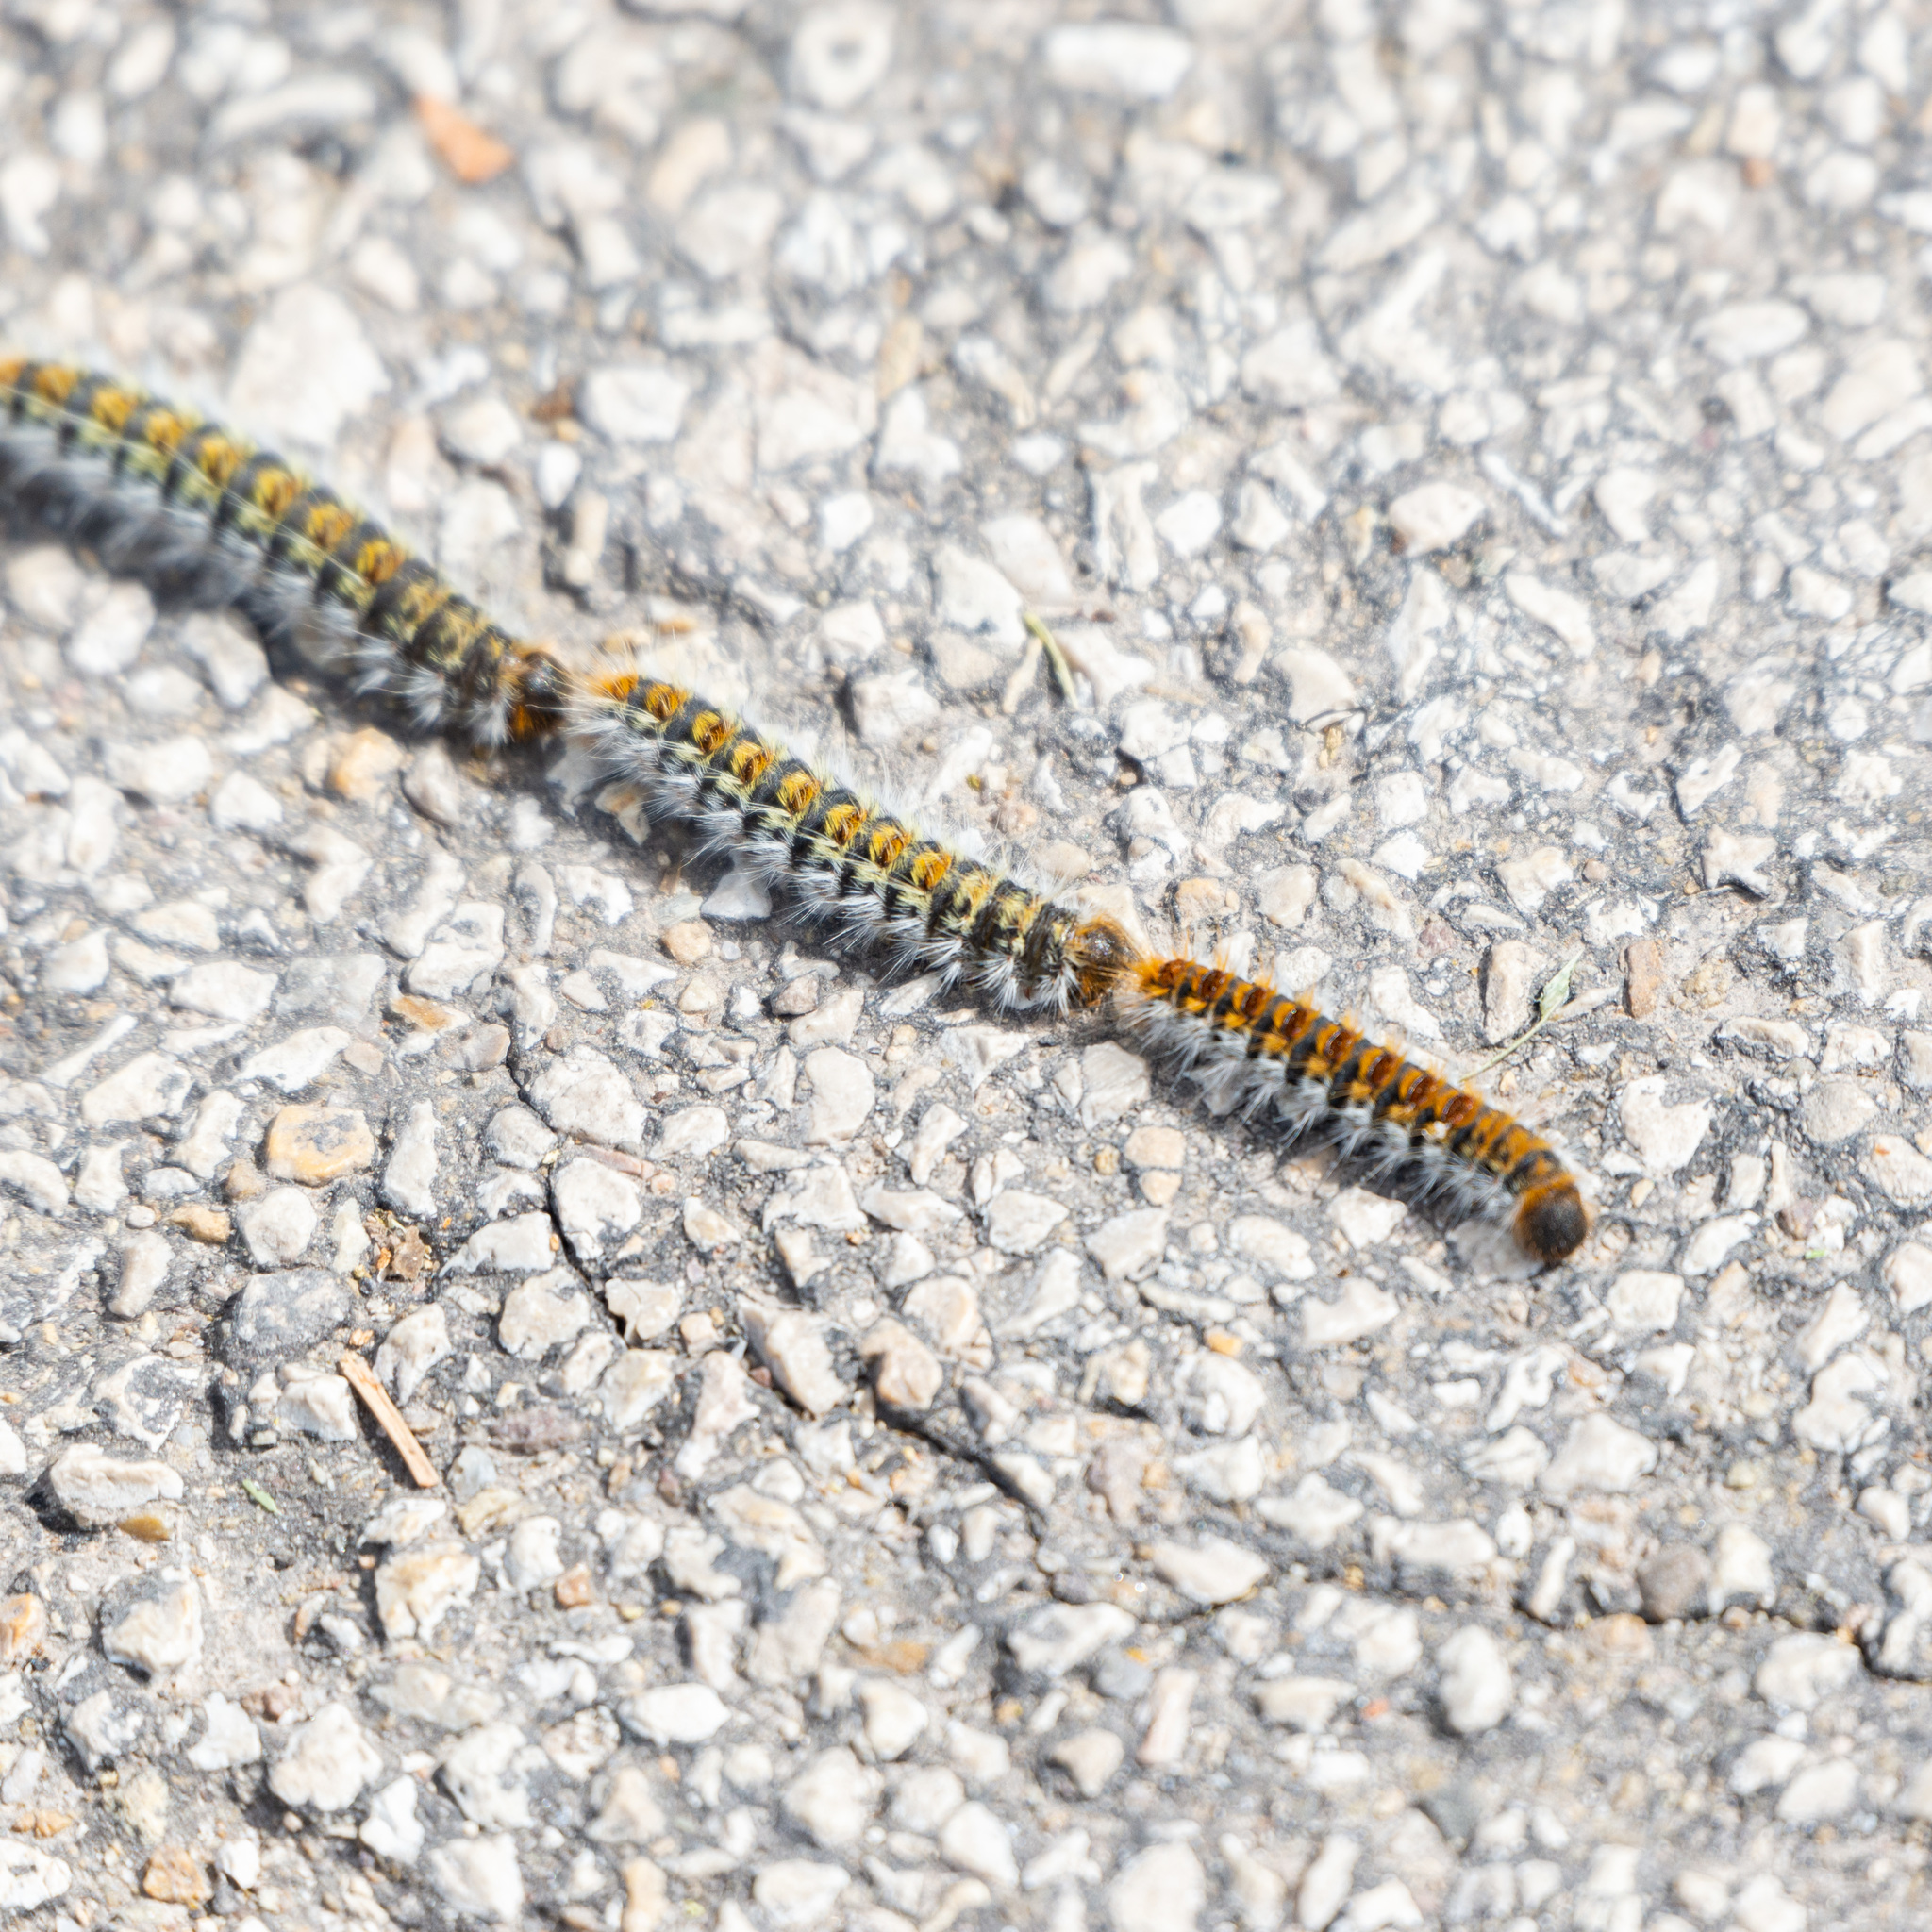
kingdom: Animalia
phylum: Arthropoda
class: Insecta
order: Lepidoptera
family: Notodontidae
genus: Thaumetopoea
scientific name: Thaumetopoea pityocampa
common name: Pine processionary
